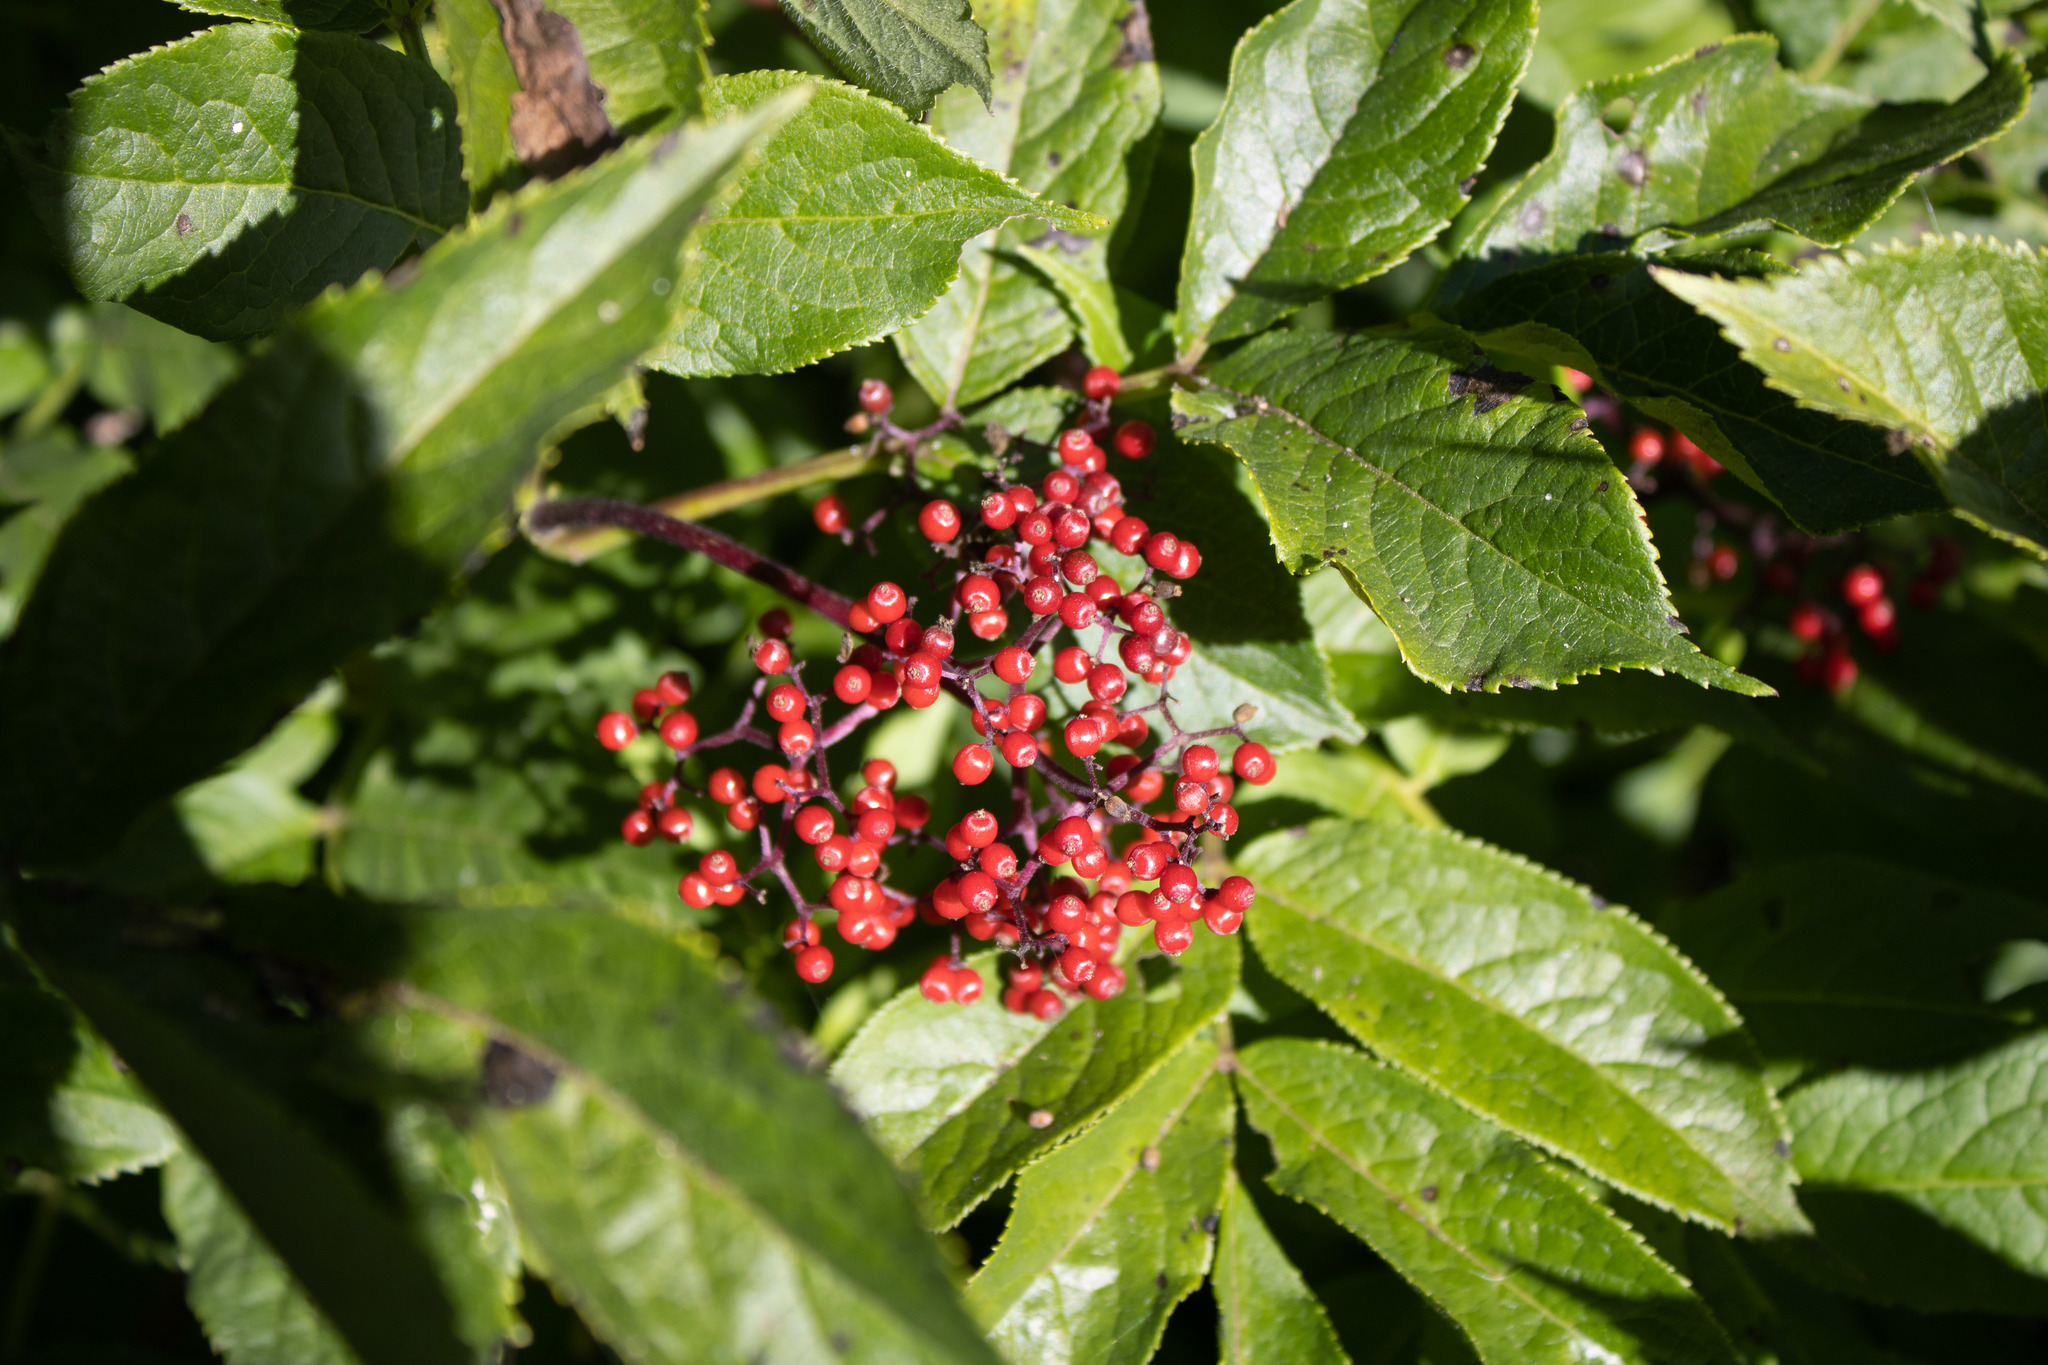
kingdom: Plantae
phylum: Tracheophyta
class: Magnoliopsida
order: Dipsacales
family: Viburnaceae
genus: Sambucus
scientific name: Sambucus racemosa
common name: Red-berried elder
